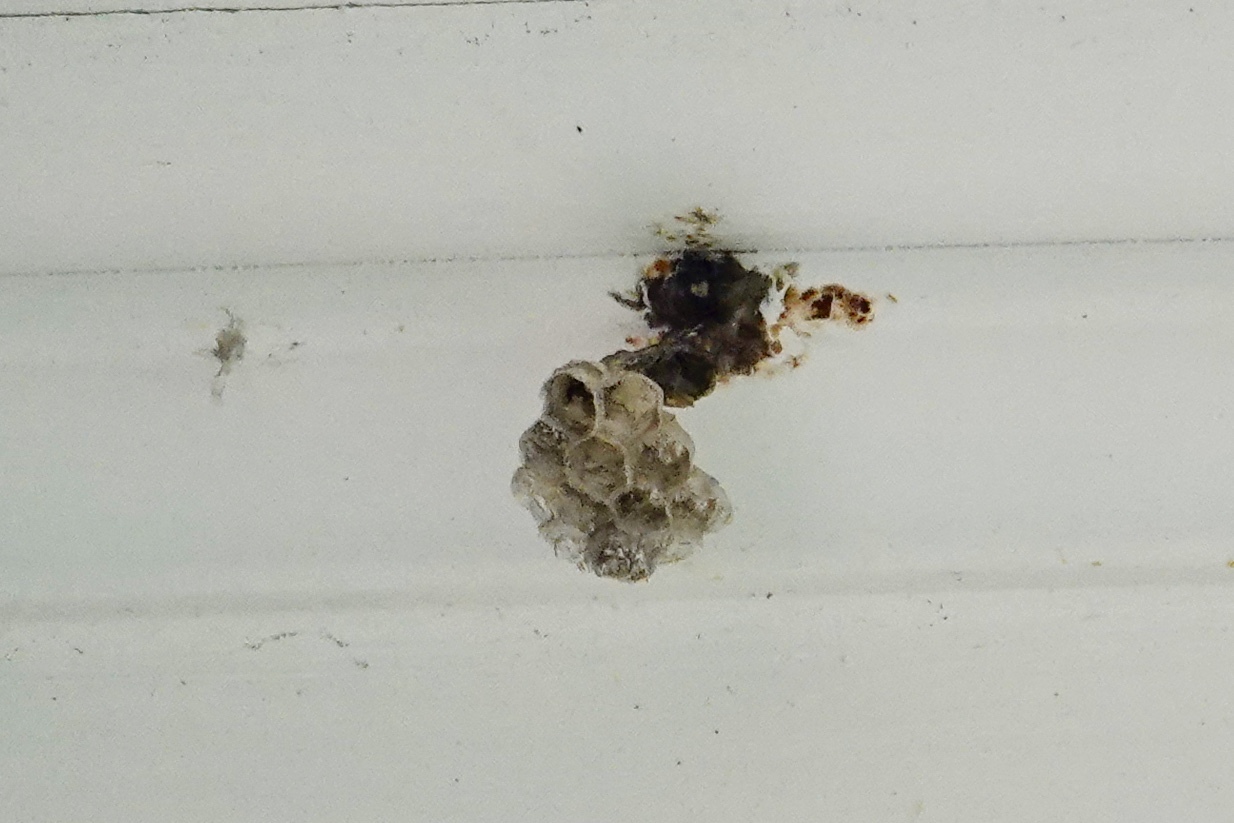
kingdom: Animalia
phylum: Arthropoda
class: Insecta
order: Hymenoptera
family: Eumenidae
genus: Polistes
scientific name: Polistes exclamans
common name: Paper wasp
